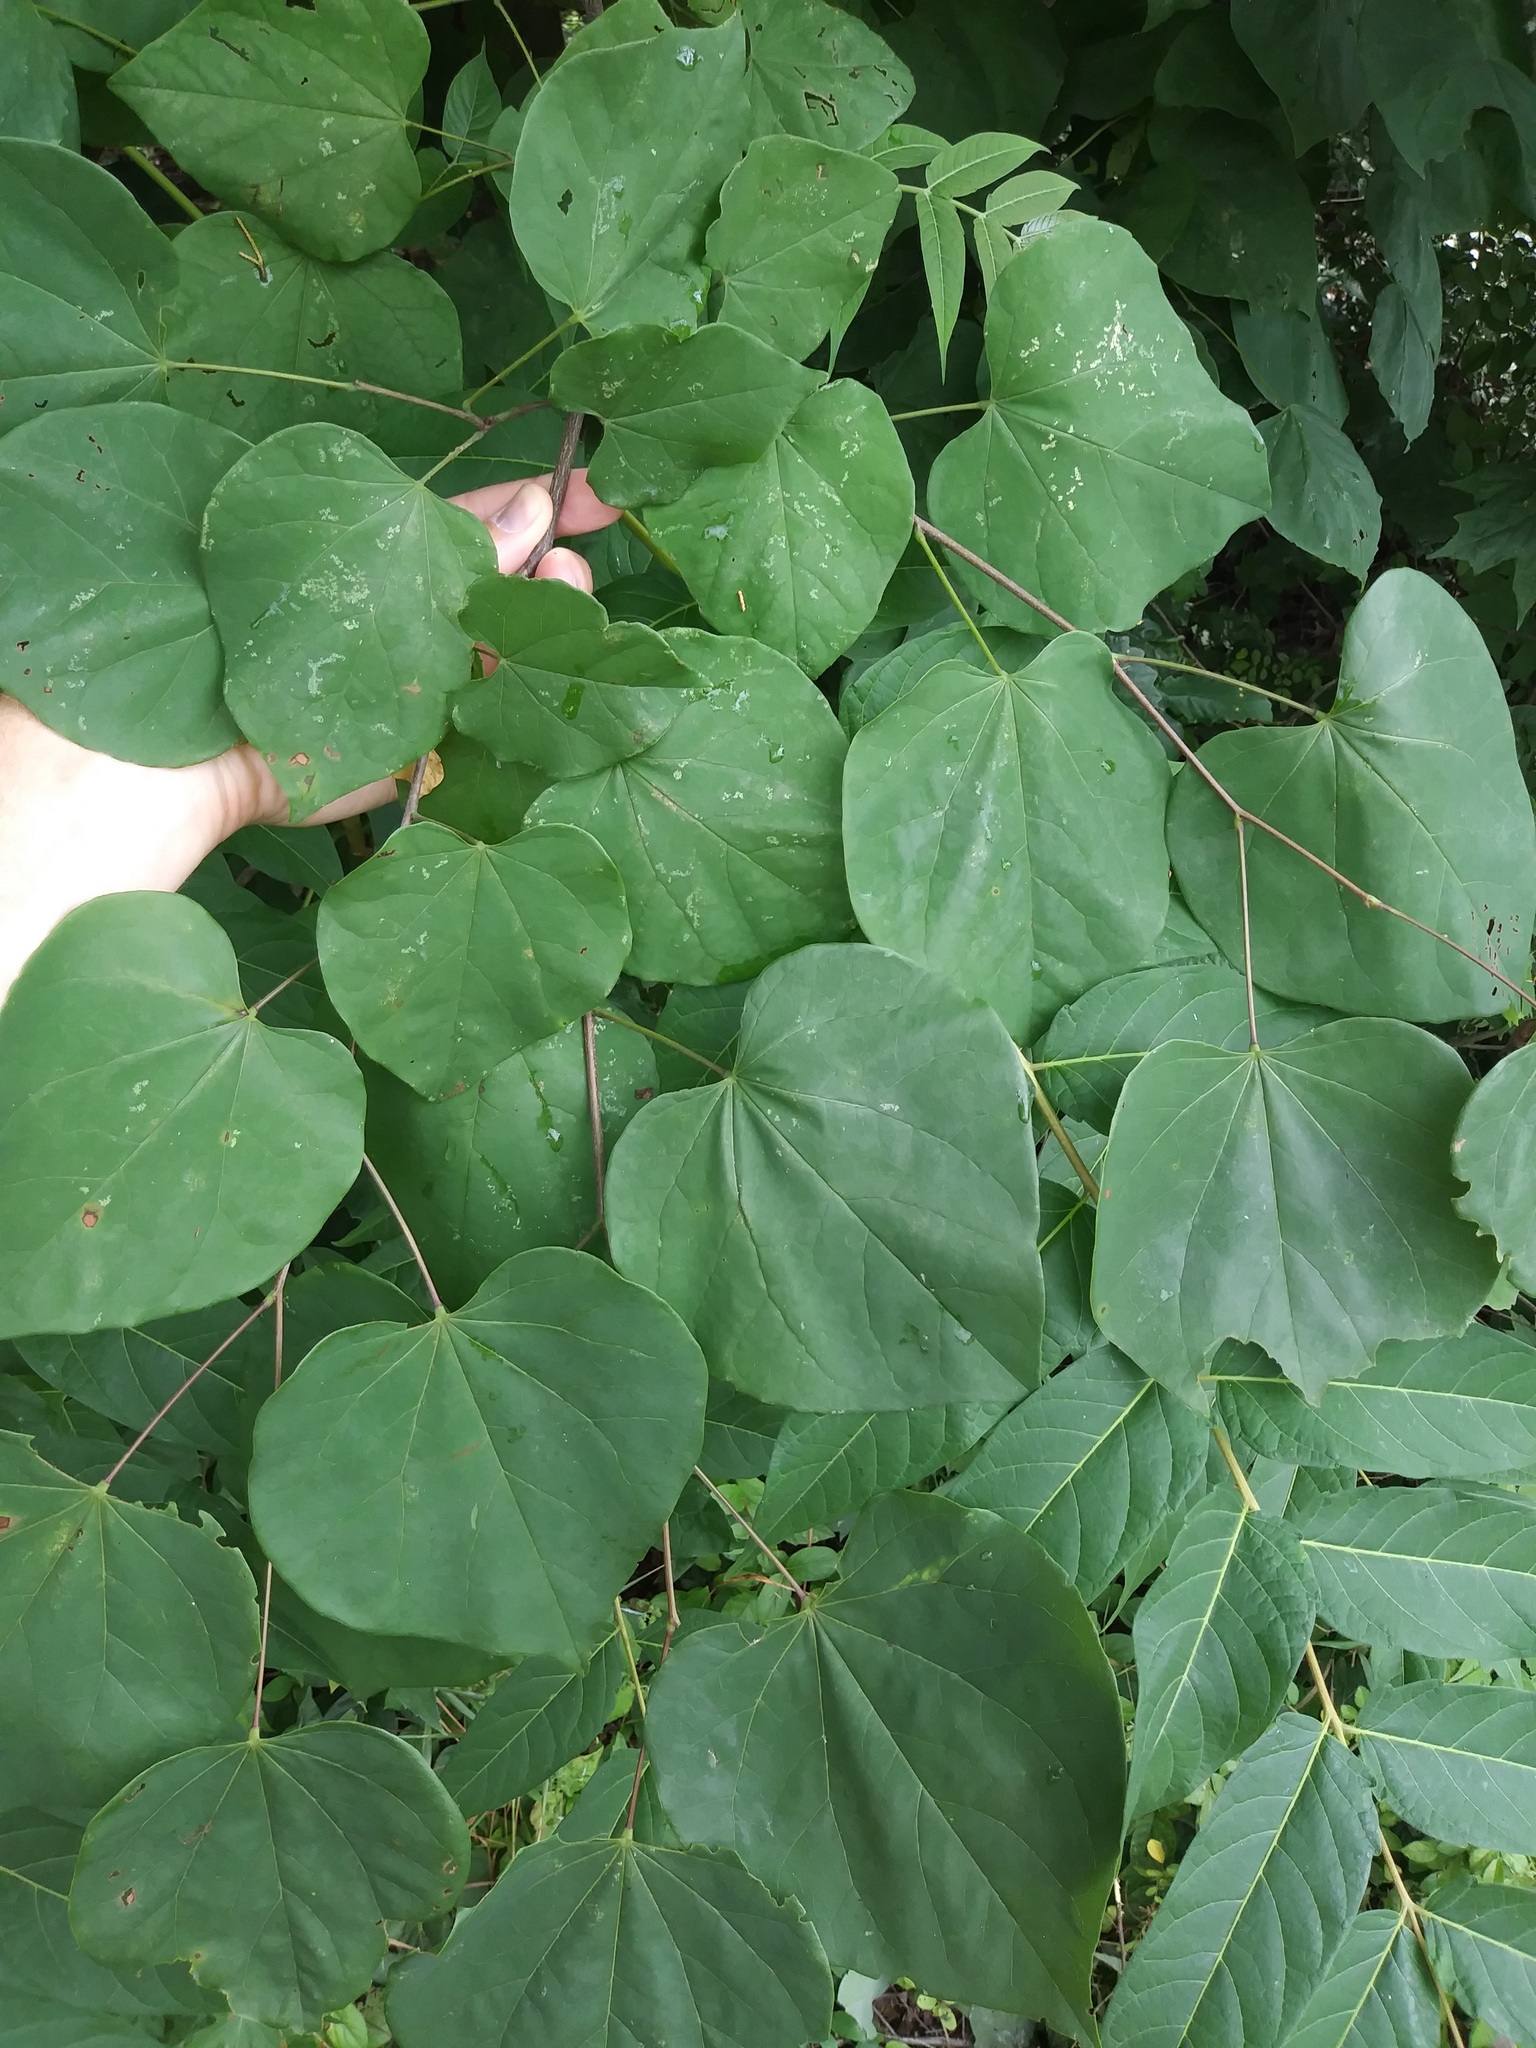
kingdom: Plantae
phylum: Tracheophyta
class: Magnoliopsida
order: Fabales
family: Fabaceae
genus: Cercis
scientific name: Cercis canadensis
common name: Eastern redbud
